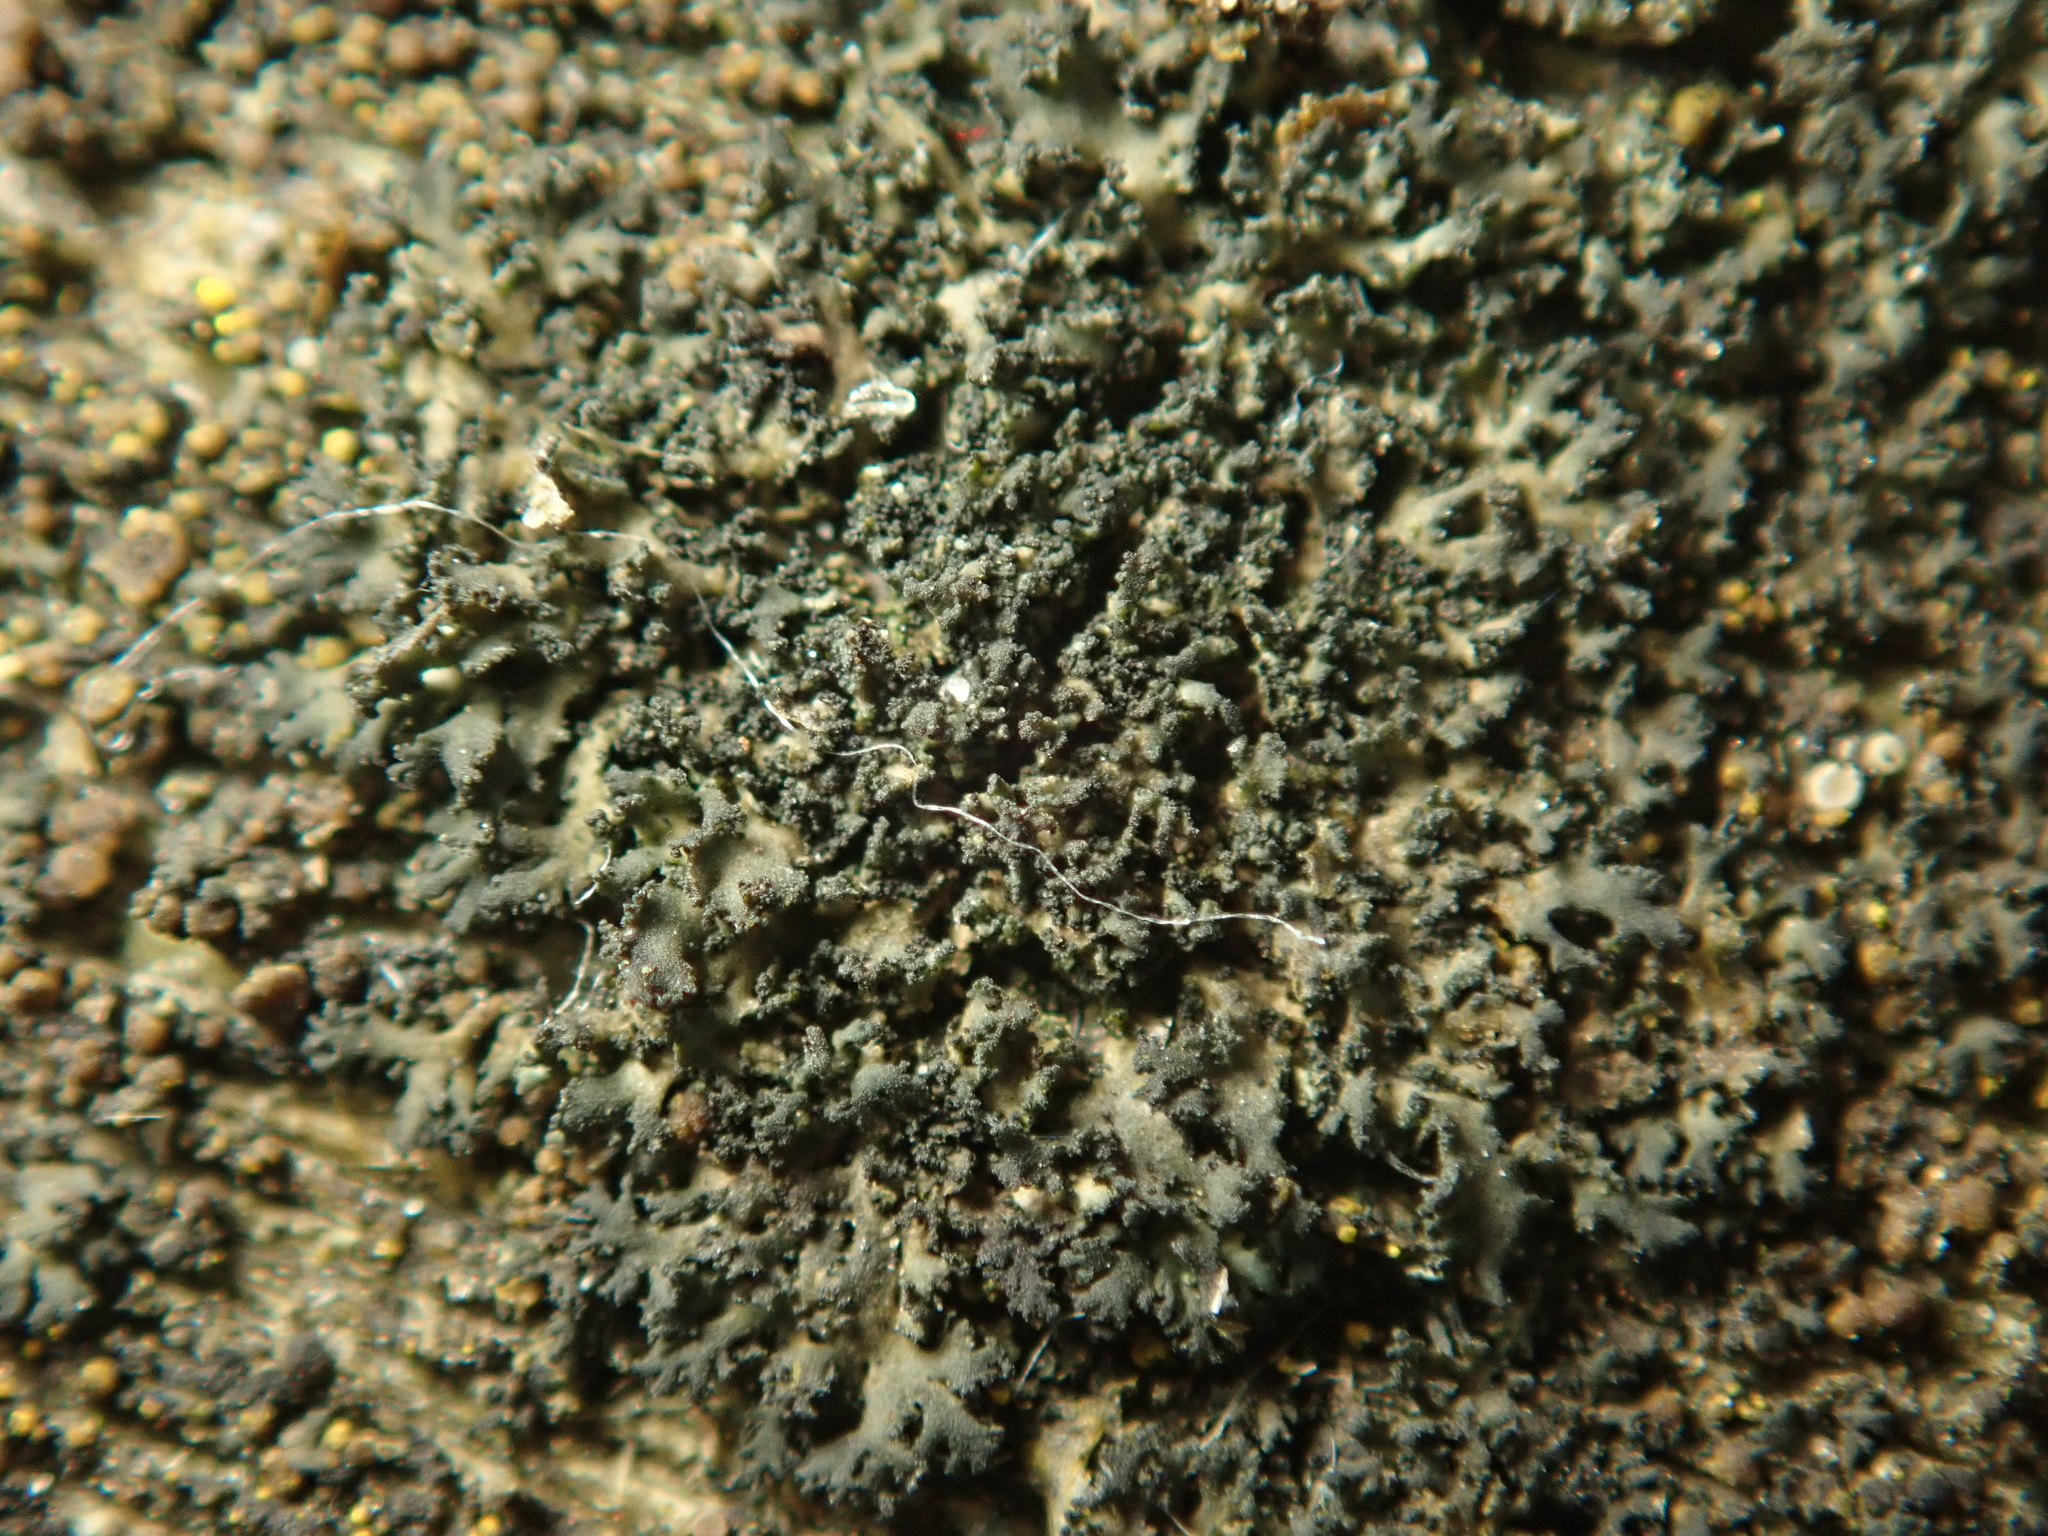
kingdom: Fungi
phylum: Ascomycota
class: Lecanoromycetes
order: Caliciales
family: Physciaceae
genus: Physciella
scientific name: Physciella nigricans
